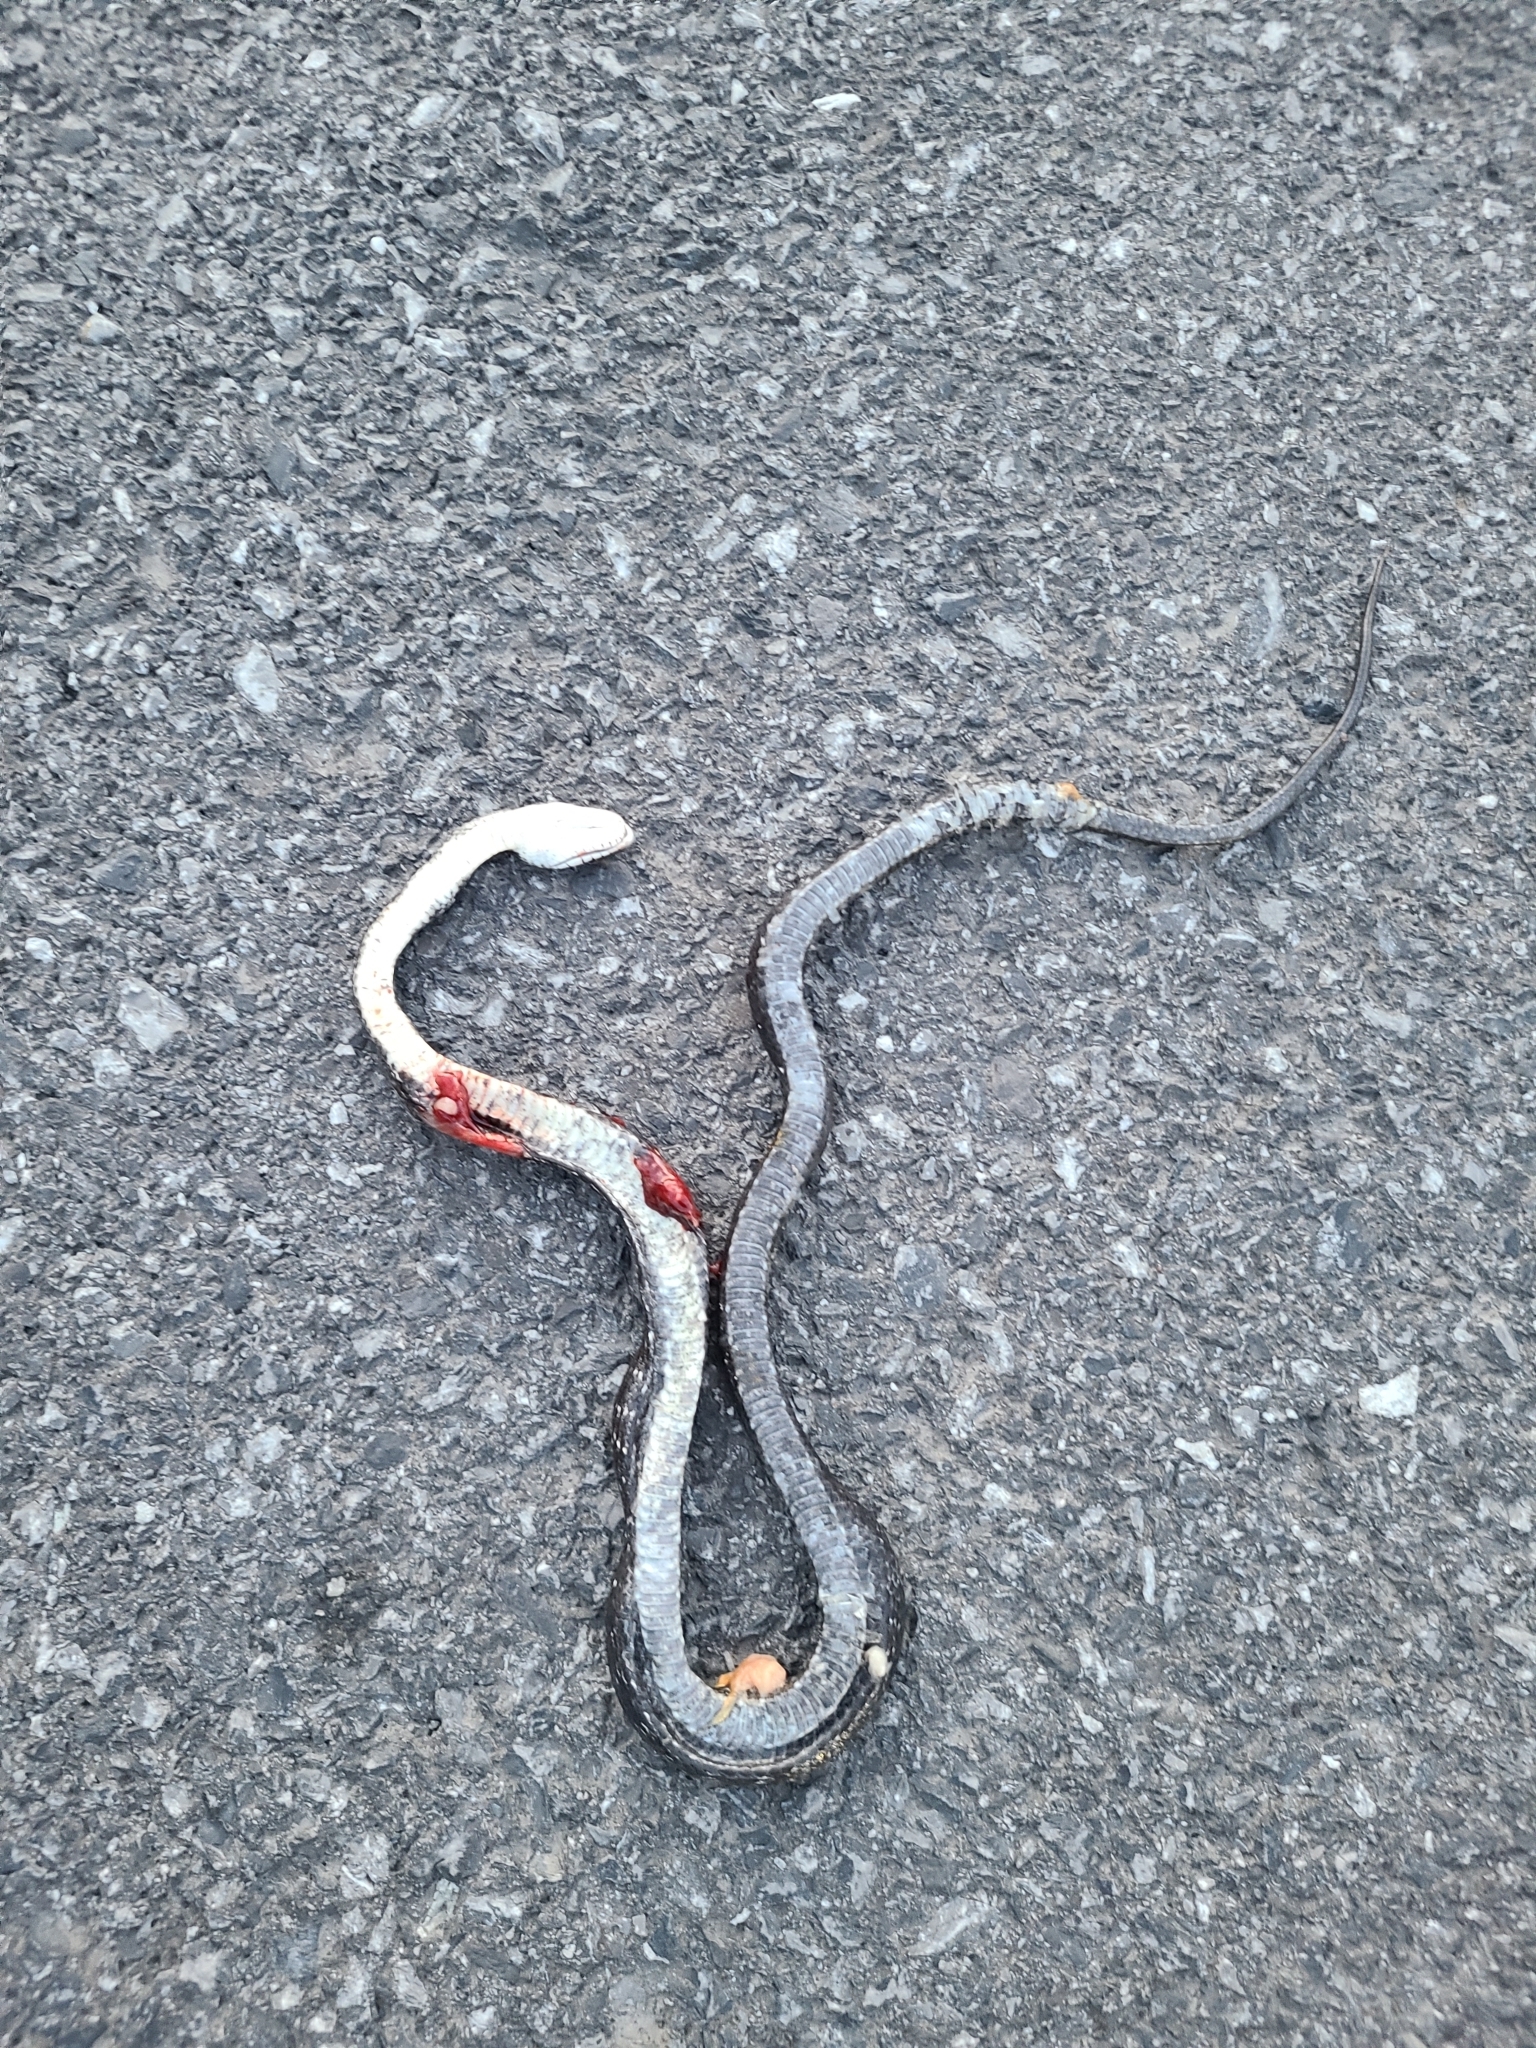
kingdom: Animalia
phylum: Chordata
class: Squamata
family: Colubridae
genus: Pantherophis
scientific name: Pantherophis alleghaniensis
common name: Eastern rat snake
